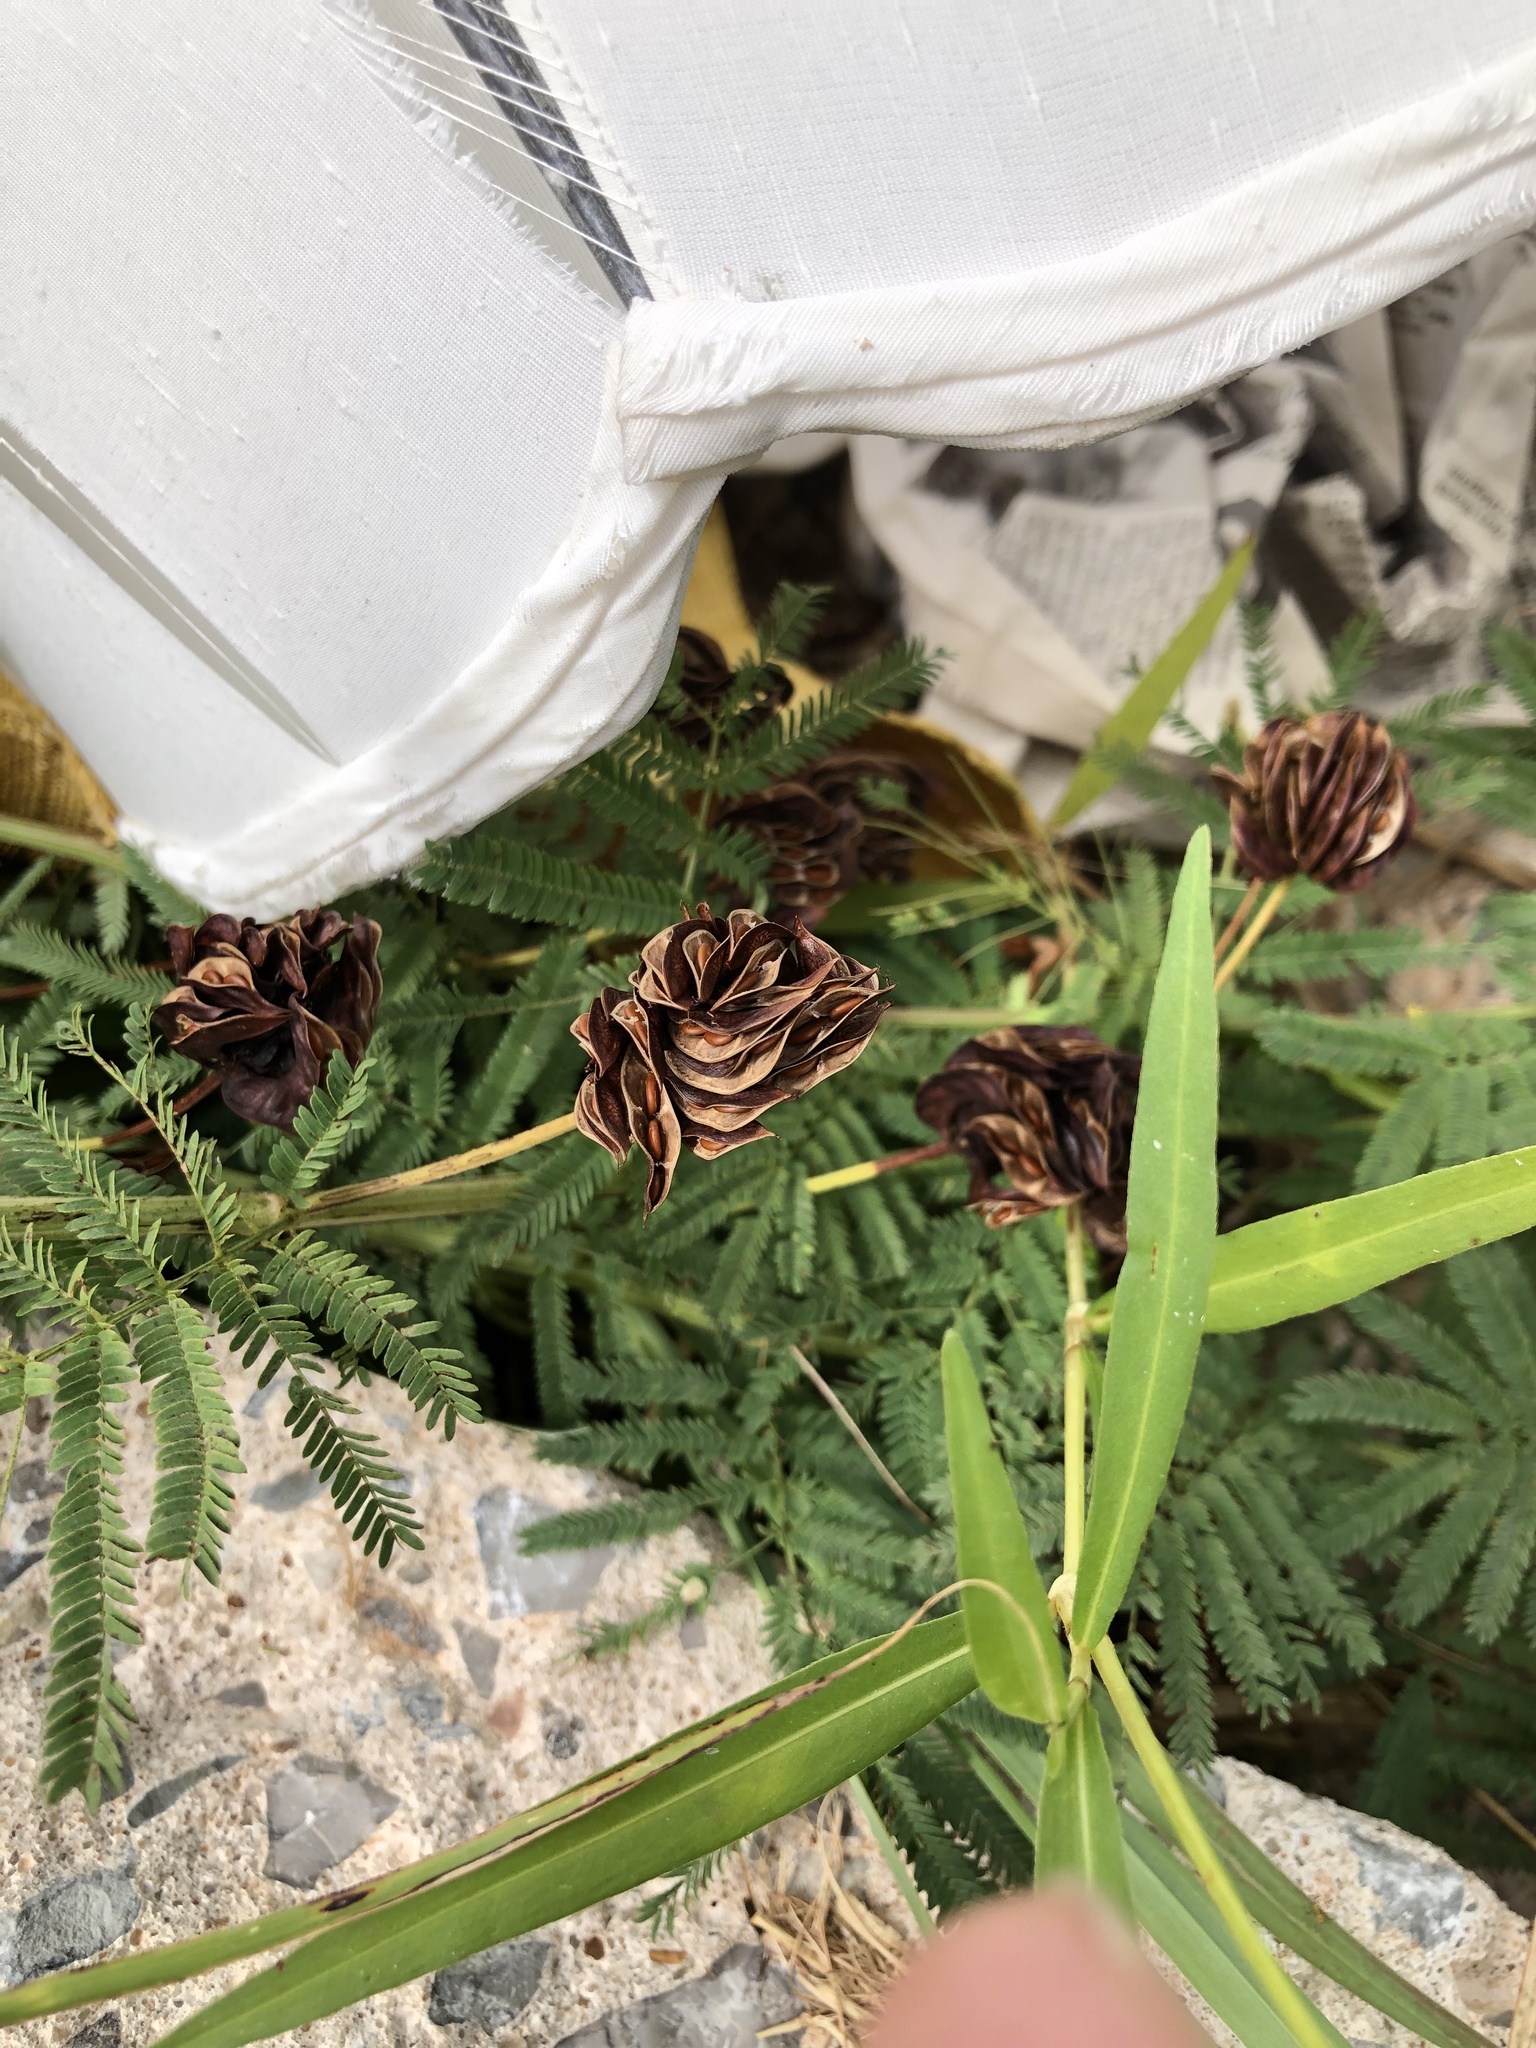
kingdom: Plantae
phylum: Tracheophyta
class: Magnoliopsida
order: Fabales
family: Fabaceae
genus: Desmanthus
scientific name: Desmanthus illinoensis
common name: Illinois bundle-flower
